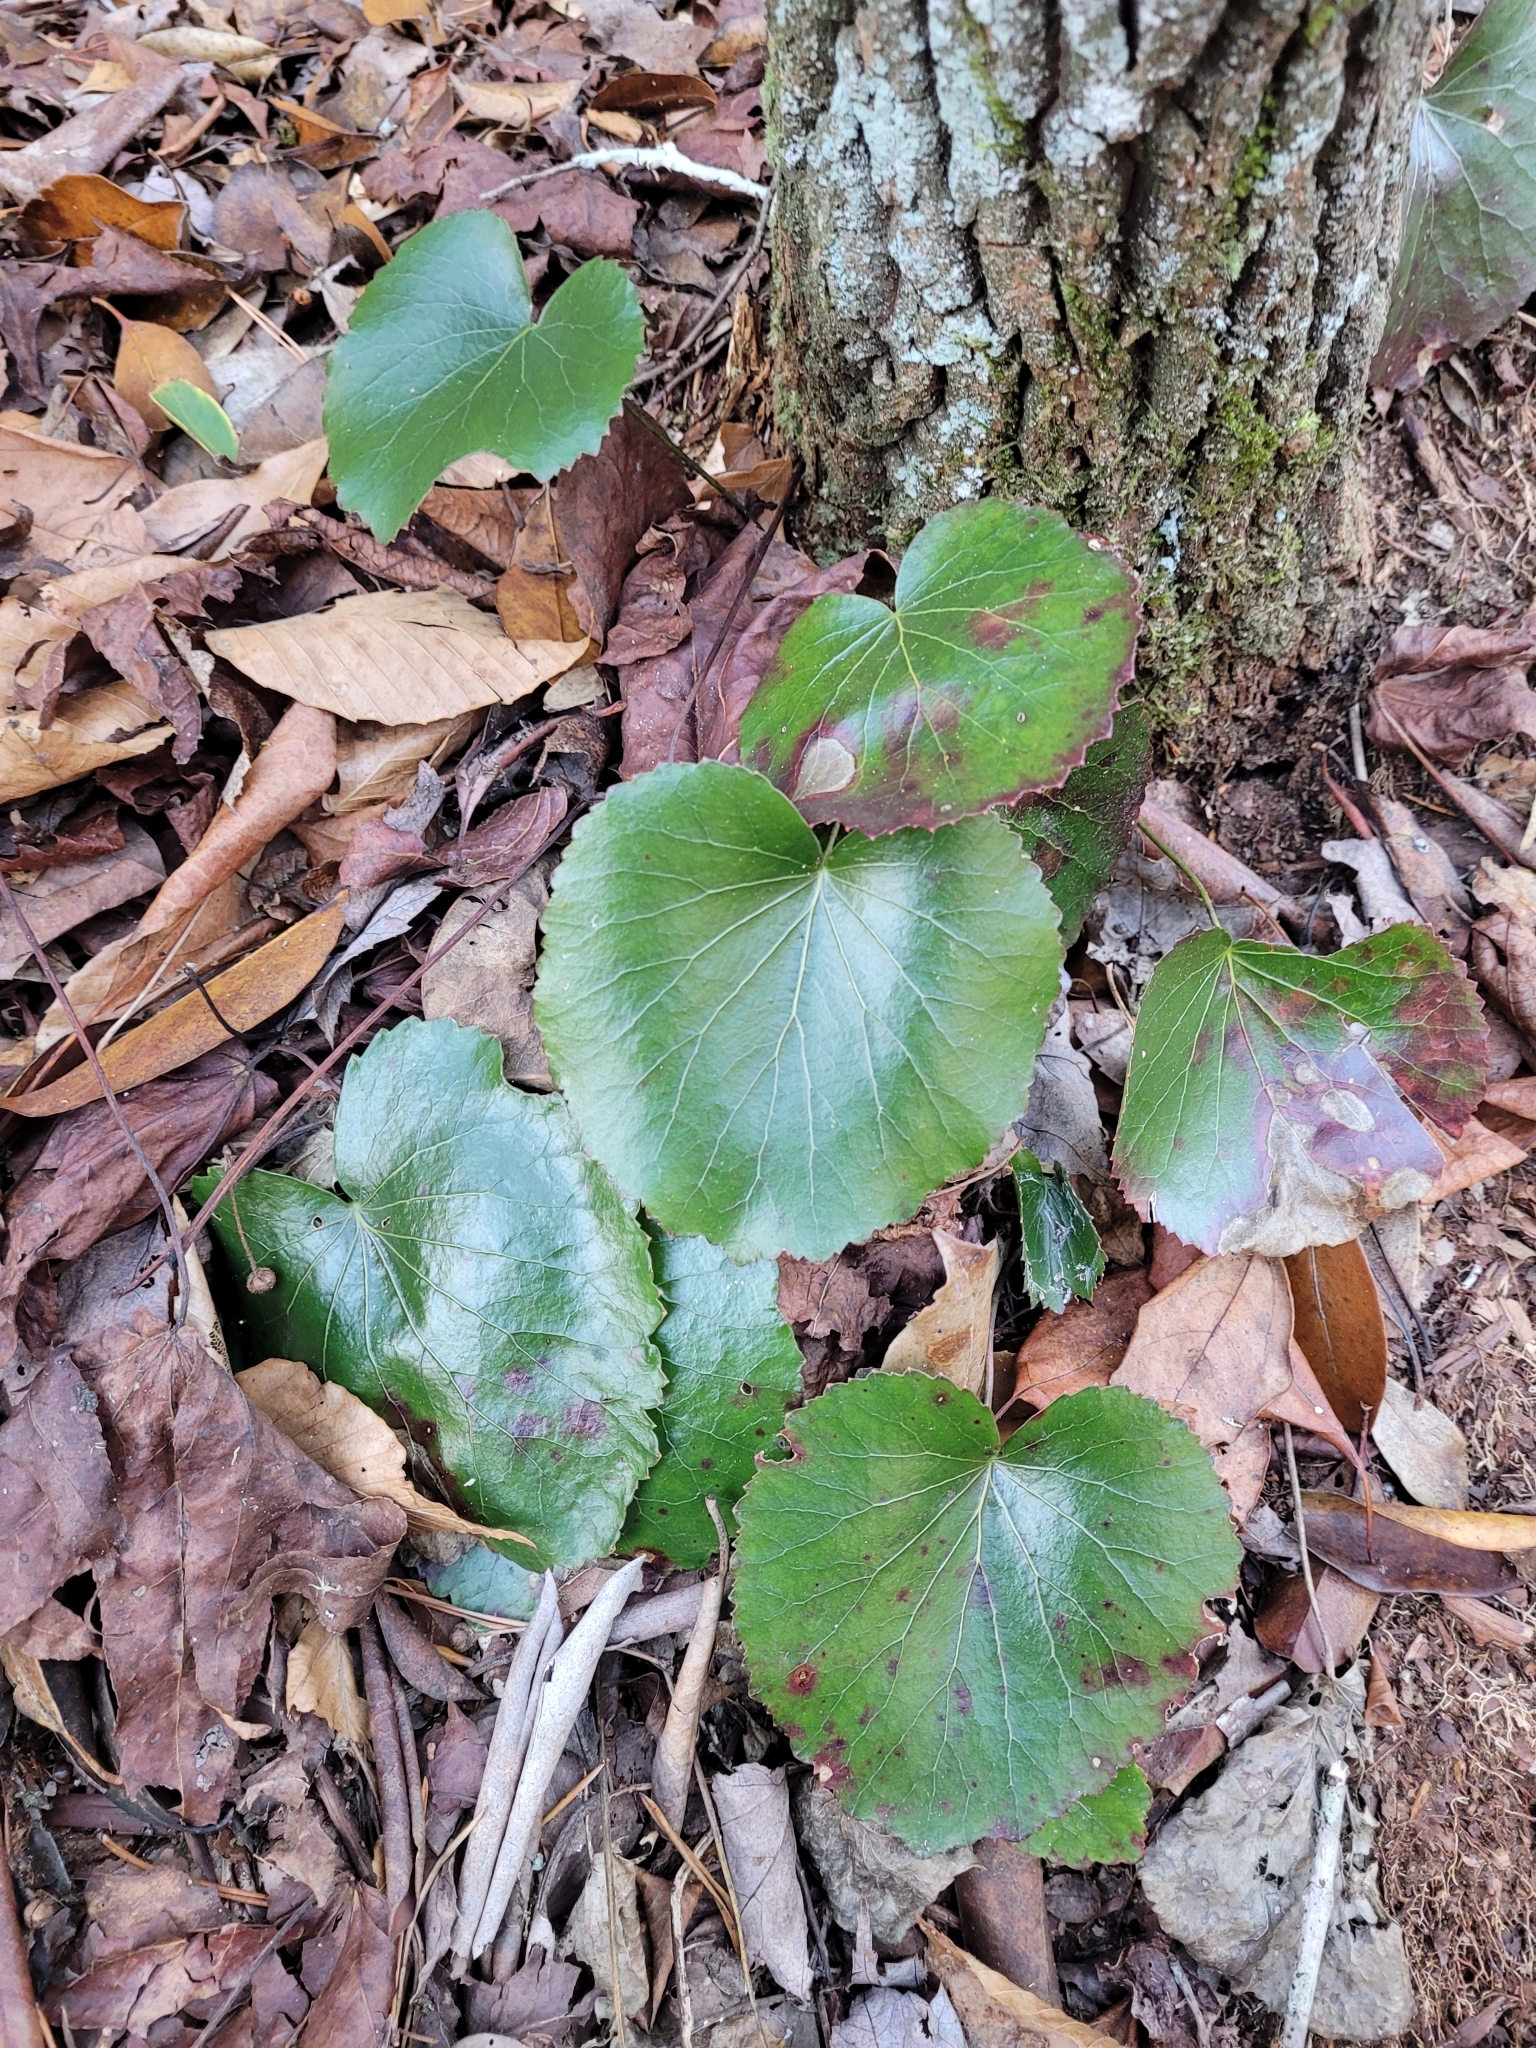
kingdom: Plantae
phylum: Tracheophyta
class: Magnoliopsida
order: Ericales
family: Diapensiaceae
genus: Galax
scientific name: Galax urceolata
